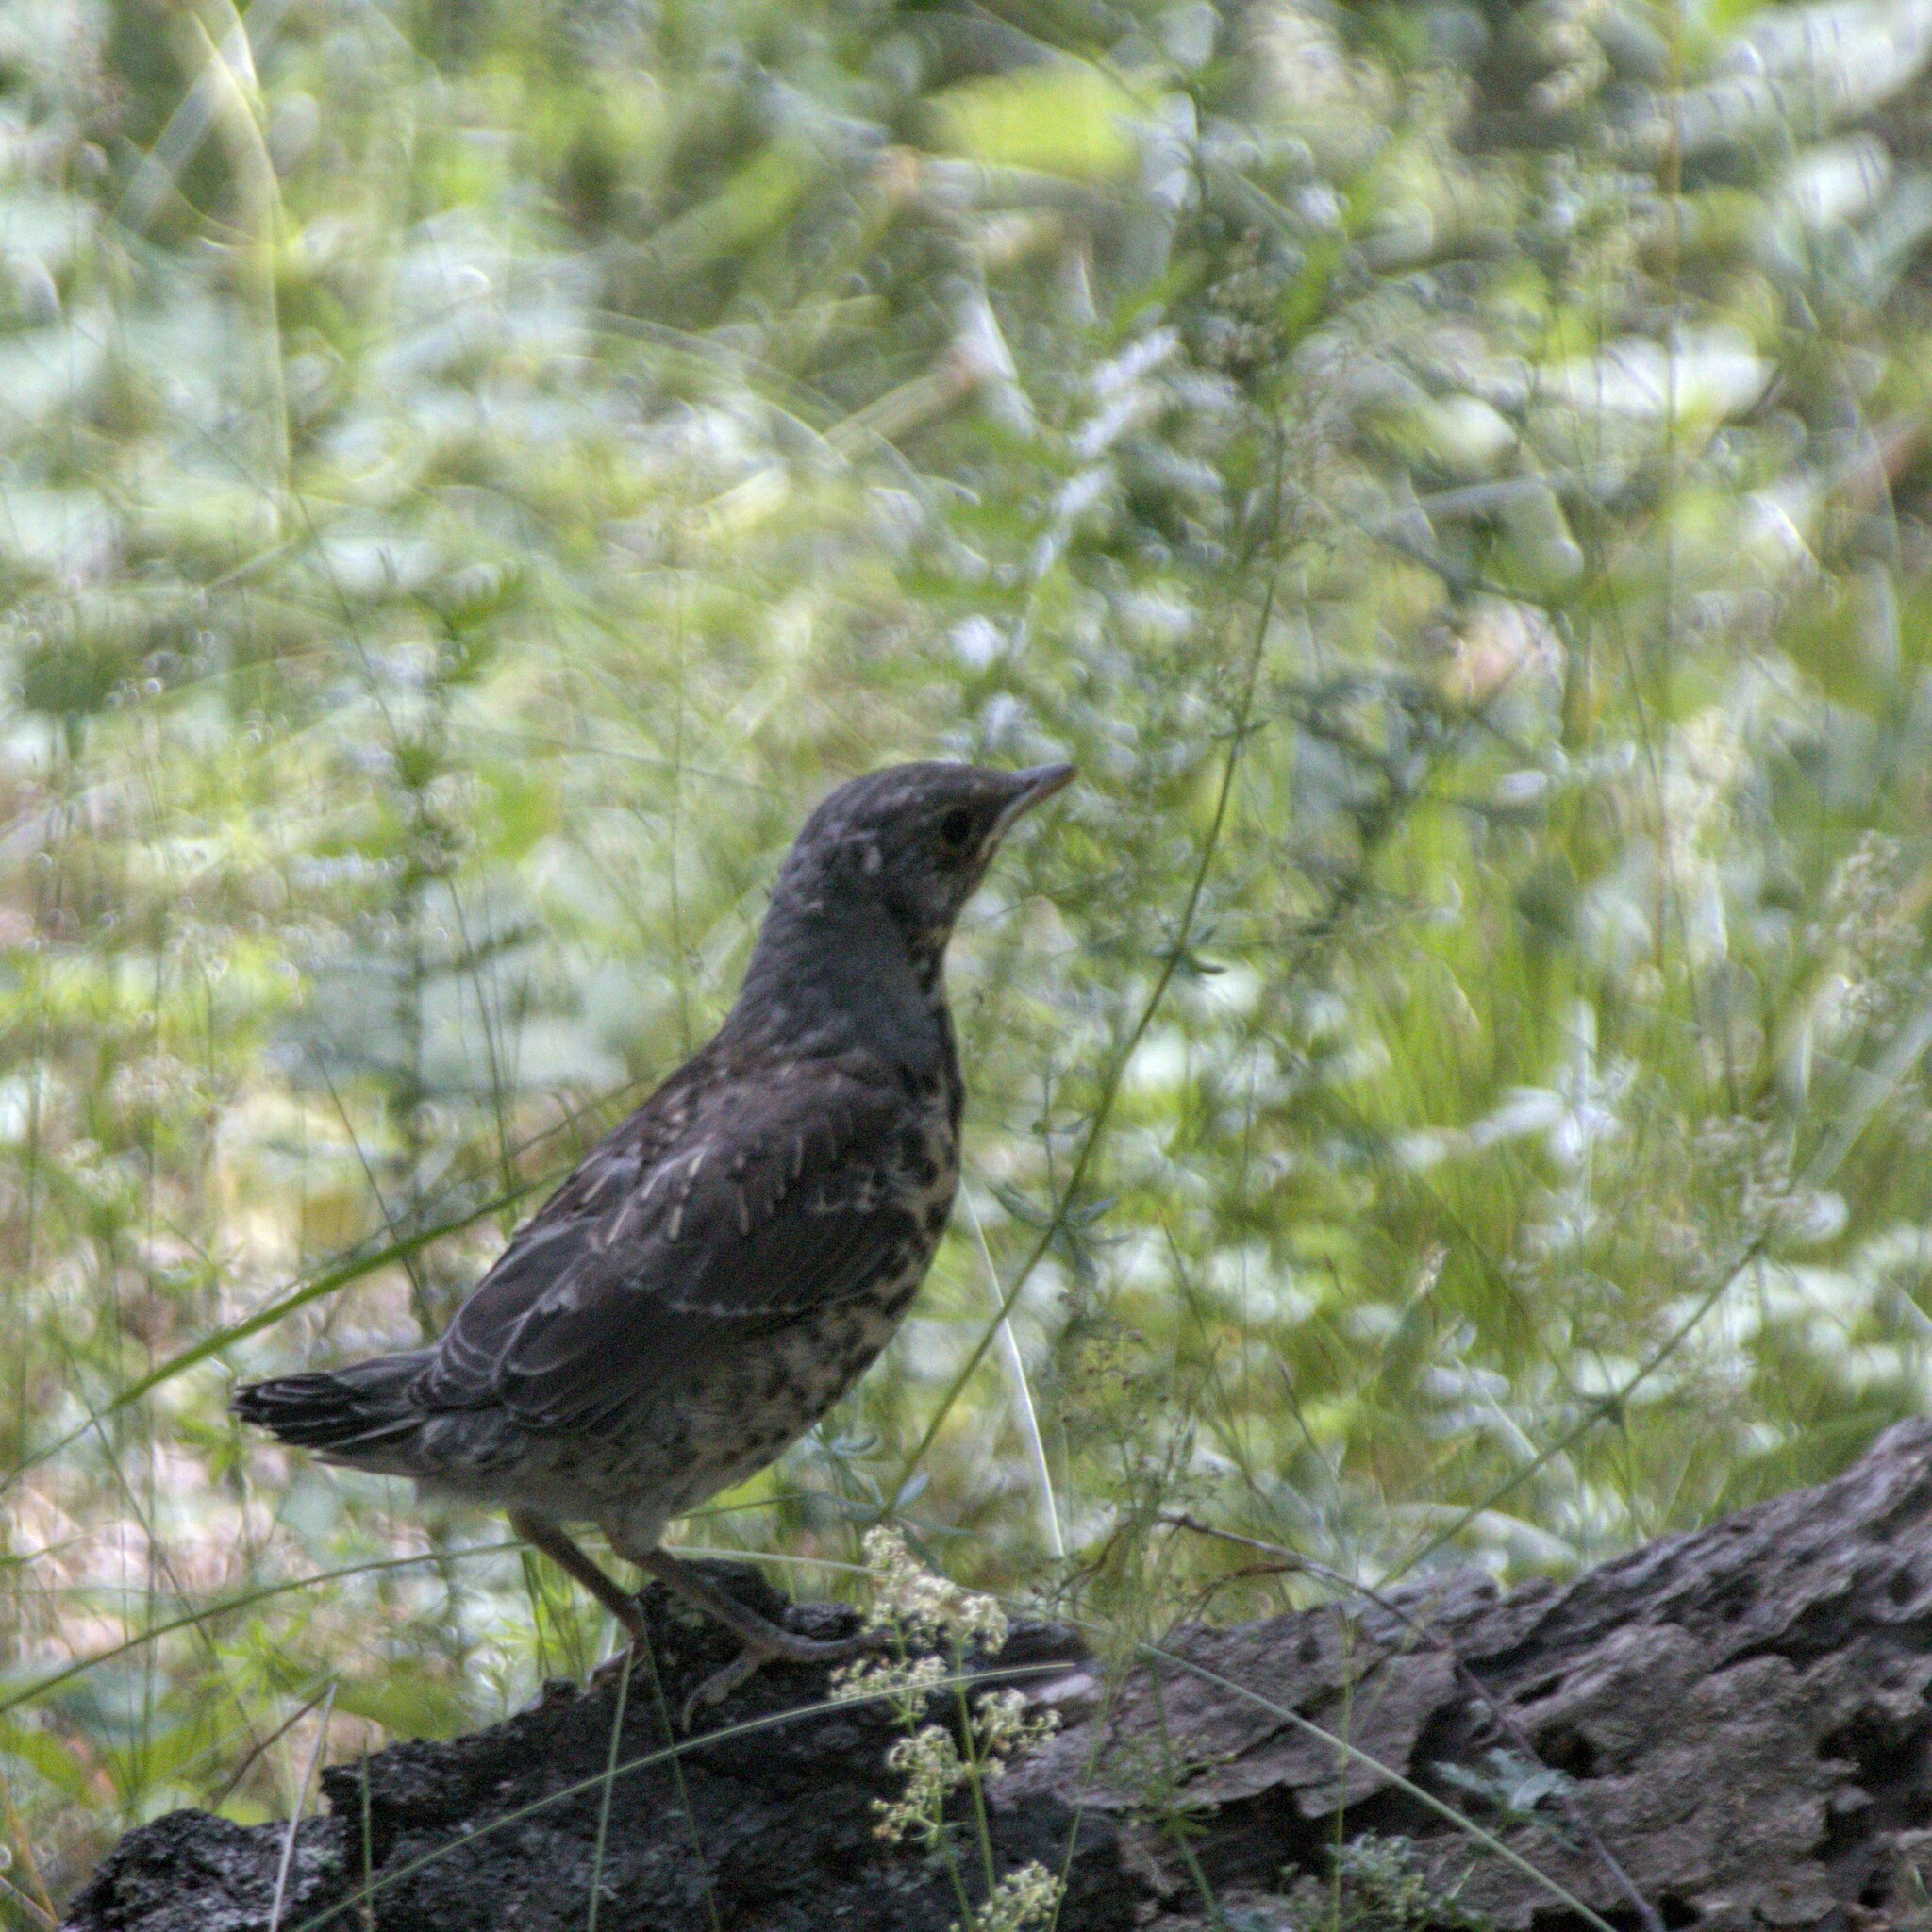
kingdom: Animalia
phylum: Chordata
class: Aves
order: Passeriformes
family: Turdidae
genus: Turdus
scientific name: Turdus pilaris
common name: Fieldfare
